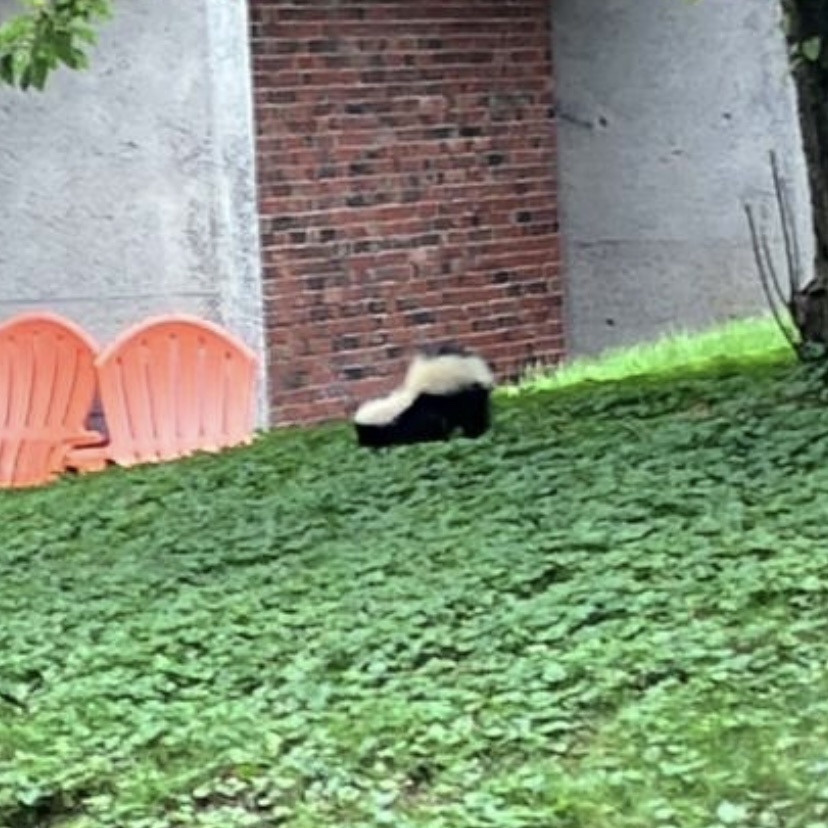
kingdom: Animalia
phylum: Chordata
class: Mammalia
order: Carnivora
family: Mephitidae
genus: Mephitis
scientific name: Mephitis mephitis
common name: Striped skunk
